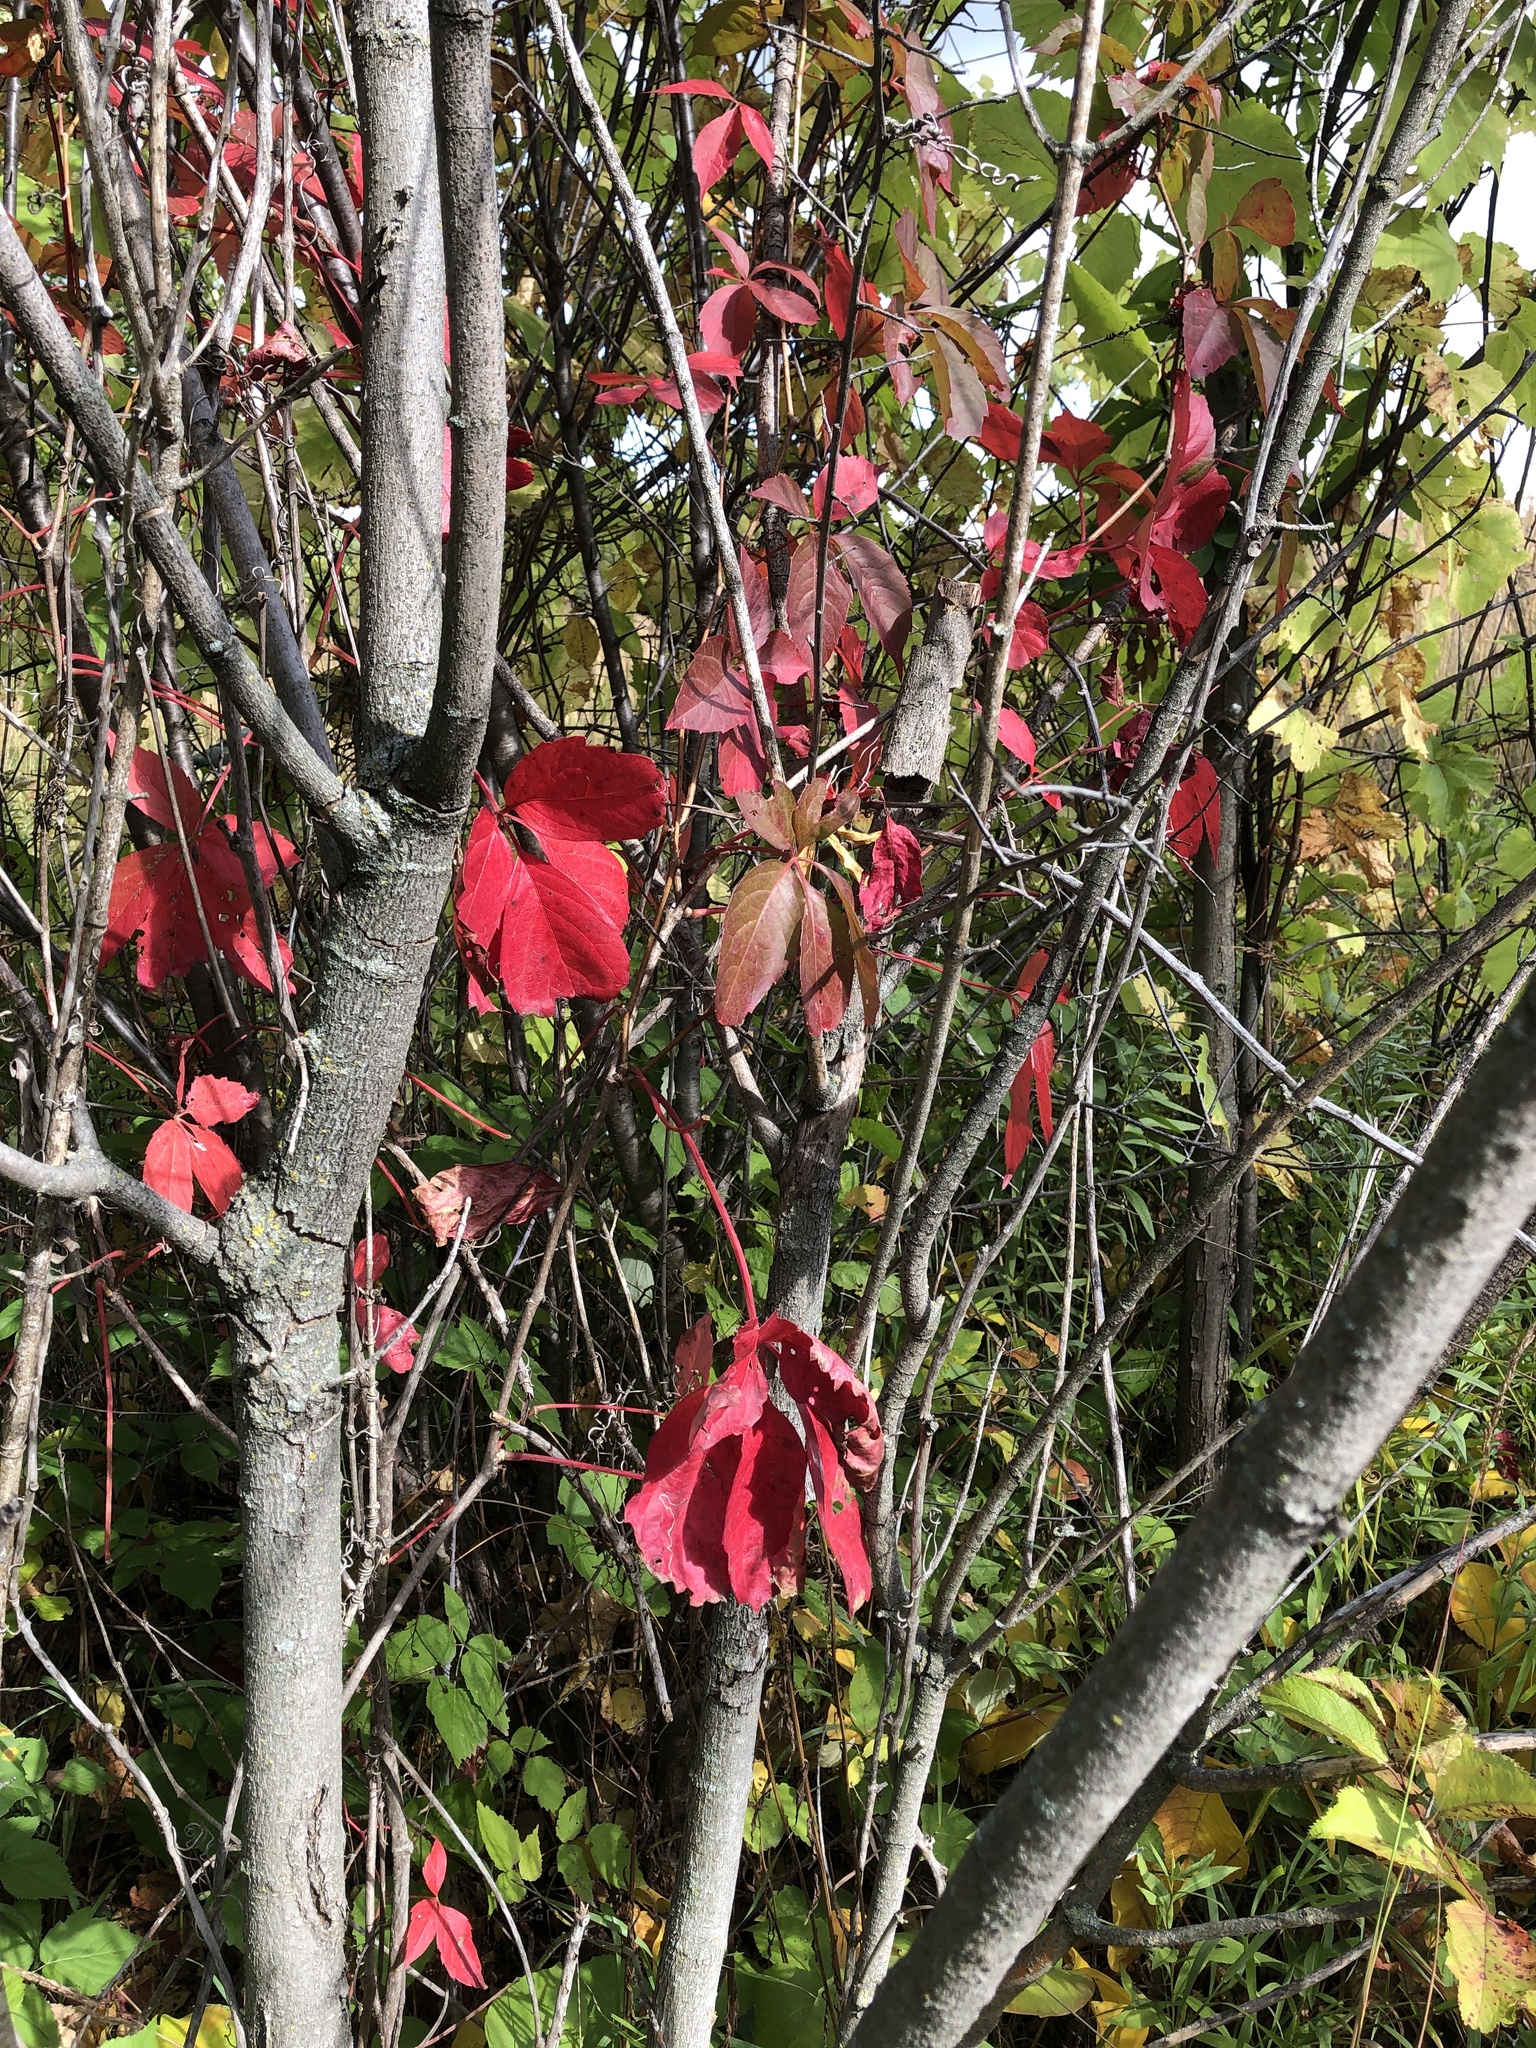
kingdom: Plantae
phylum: Tracheophyta
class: Magnoliopsida
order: Vitales
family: Vitaceae
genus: Parthenocissus
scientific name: Parthenocissus quinquefolia
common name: Virginia-creeper
